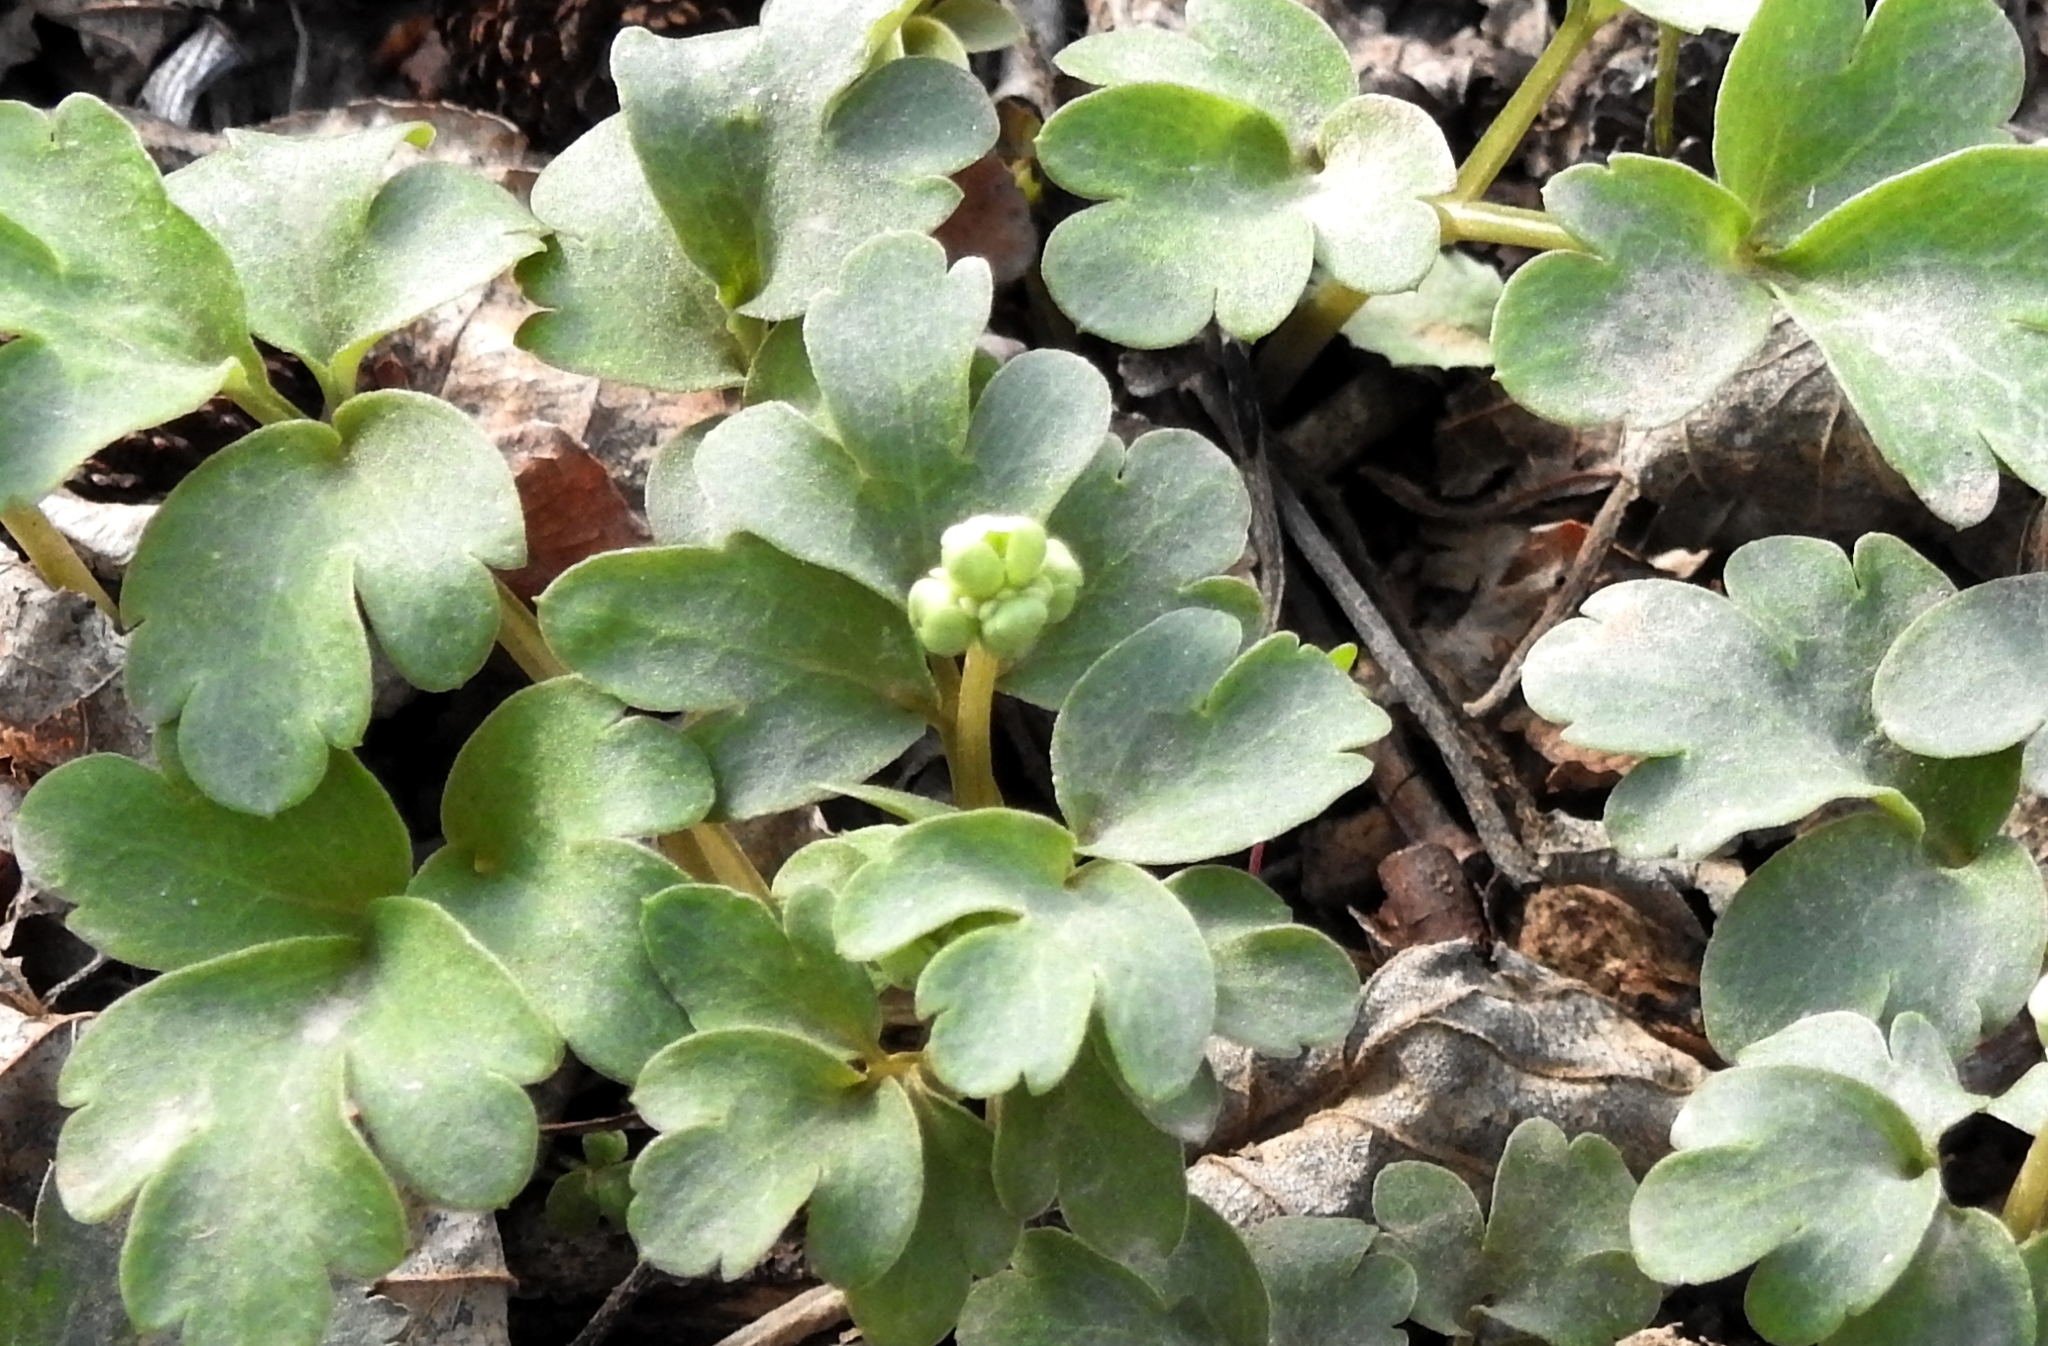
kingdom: Plantae
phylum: Tracheophyta
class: Magnoliopsida
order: Dipsacales
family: Viburnaceae
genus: Adoxa
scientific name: Adoxa moschatellina
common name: Moschatel
